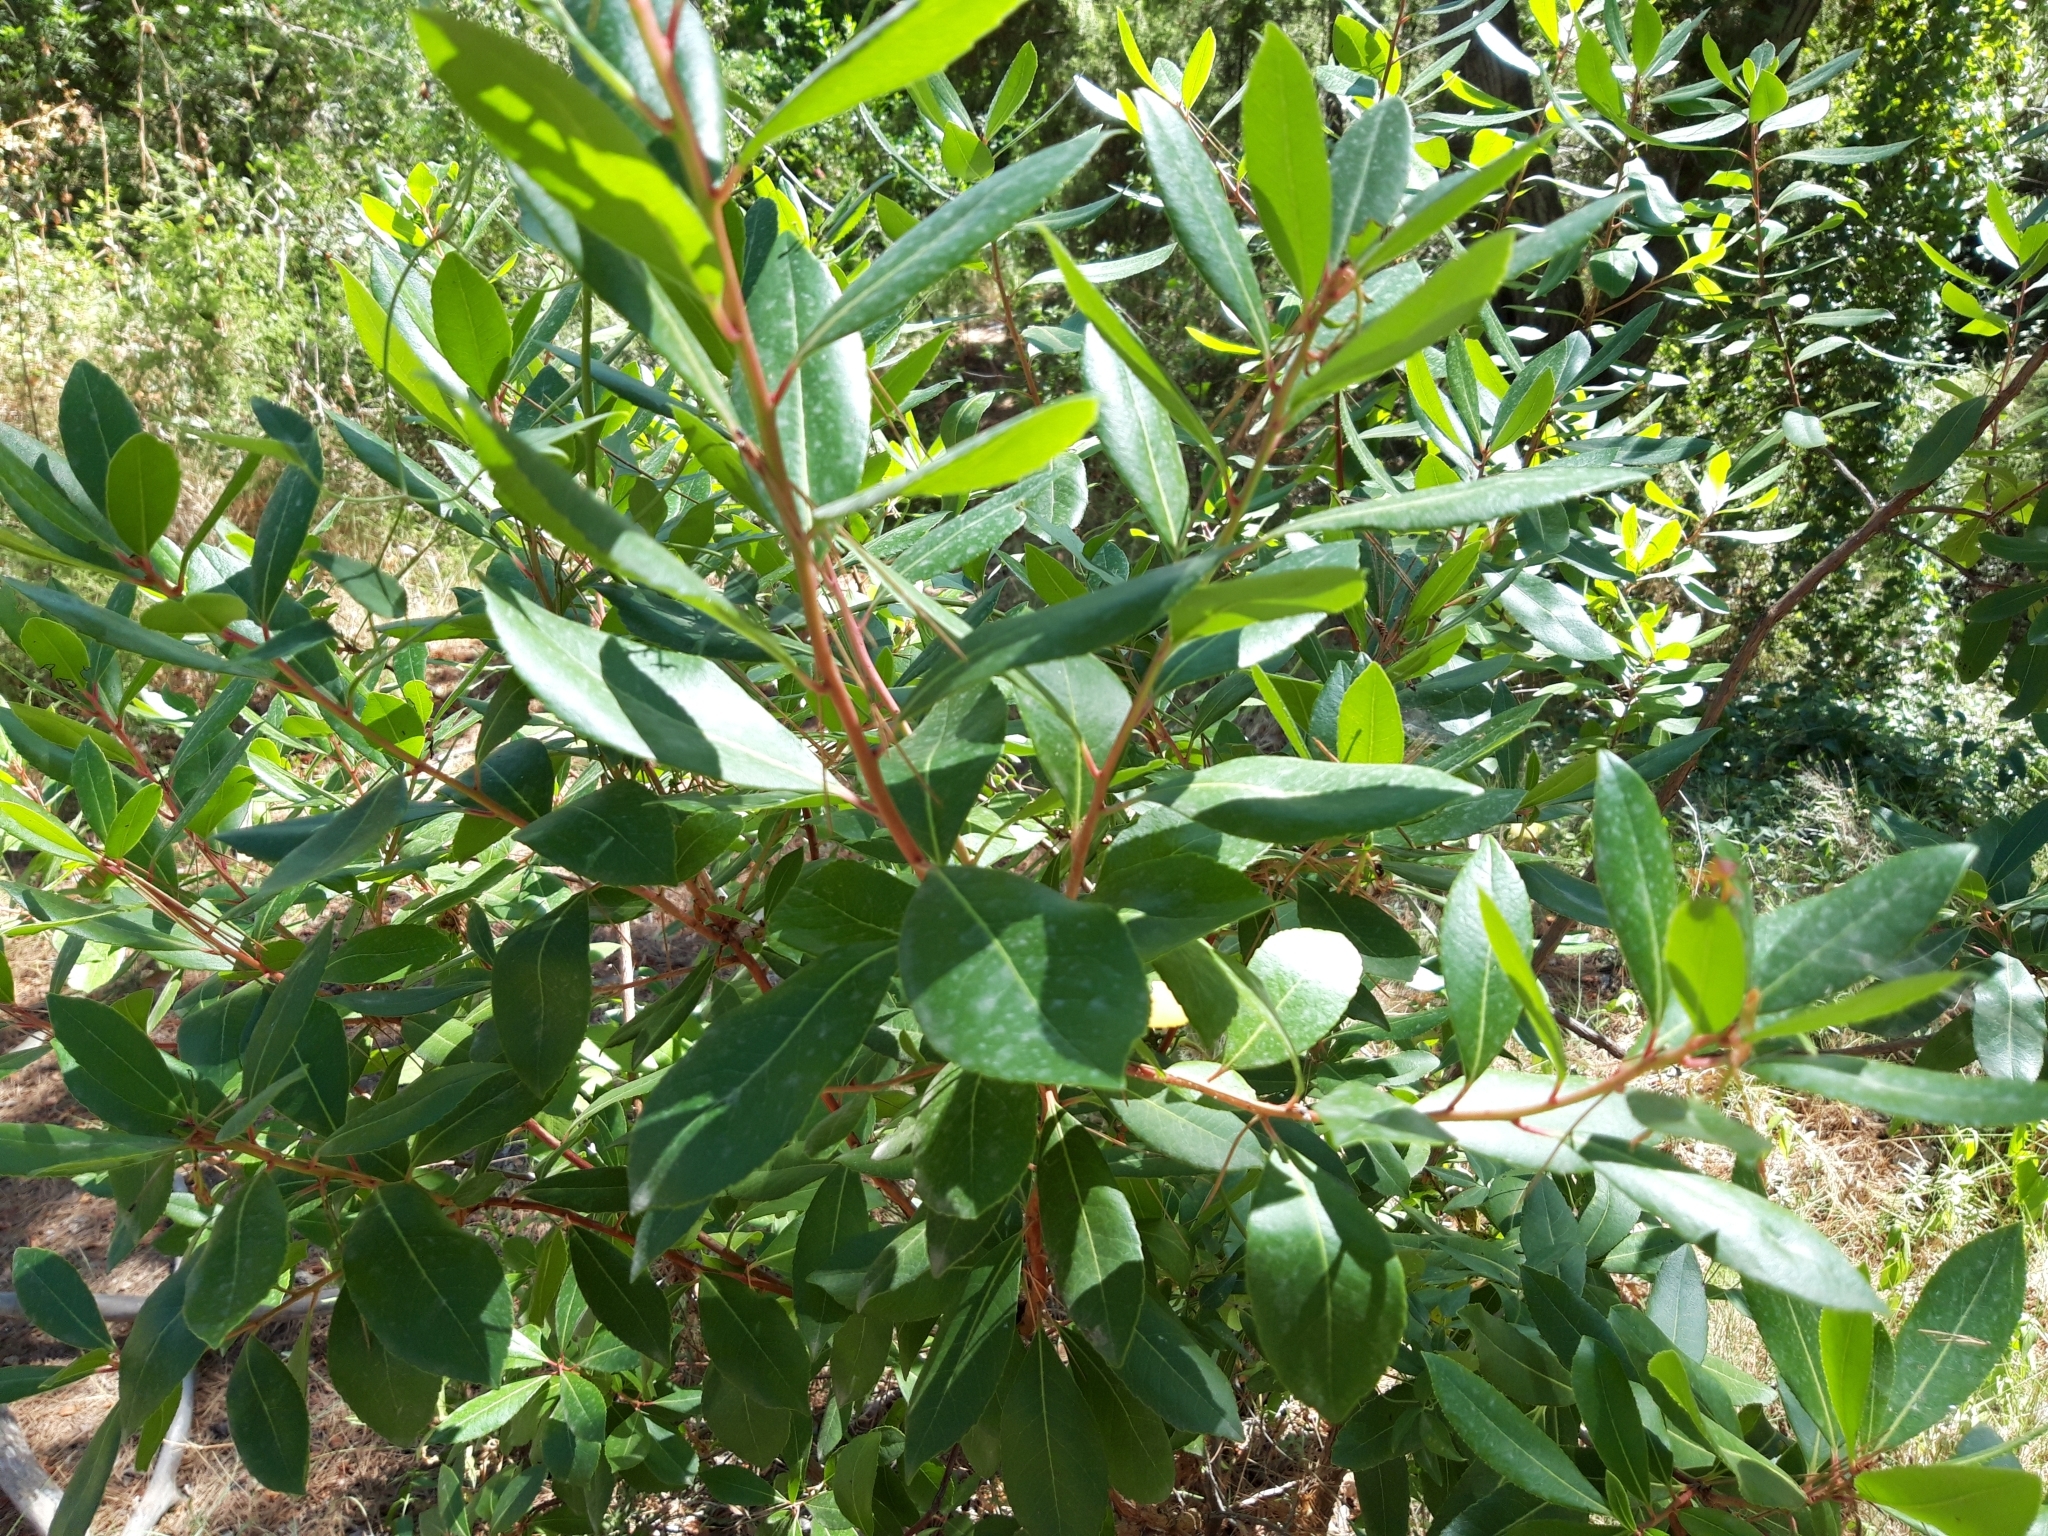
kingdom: Plantae
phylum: Tracheophyta
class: Magnoliopsida
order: Ericales
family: Ericaceae
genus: Arbutus
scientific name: Arbutus unedo
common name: Strawberry-tree
